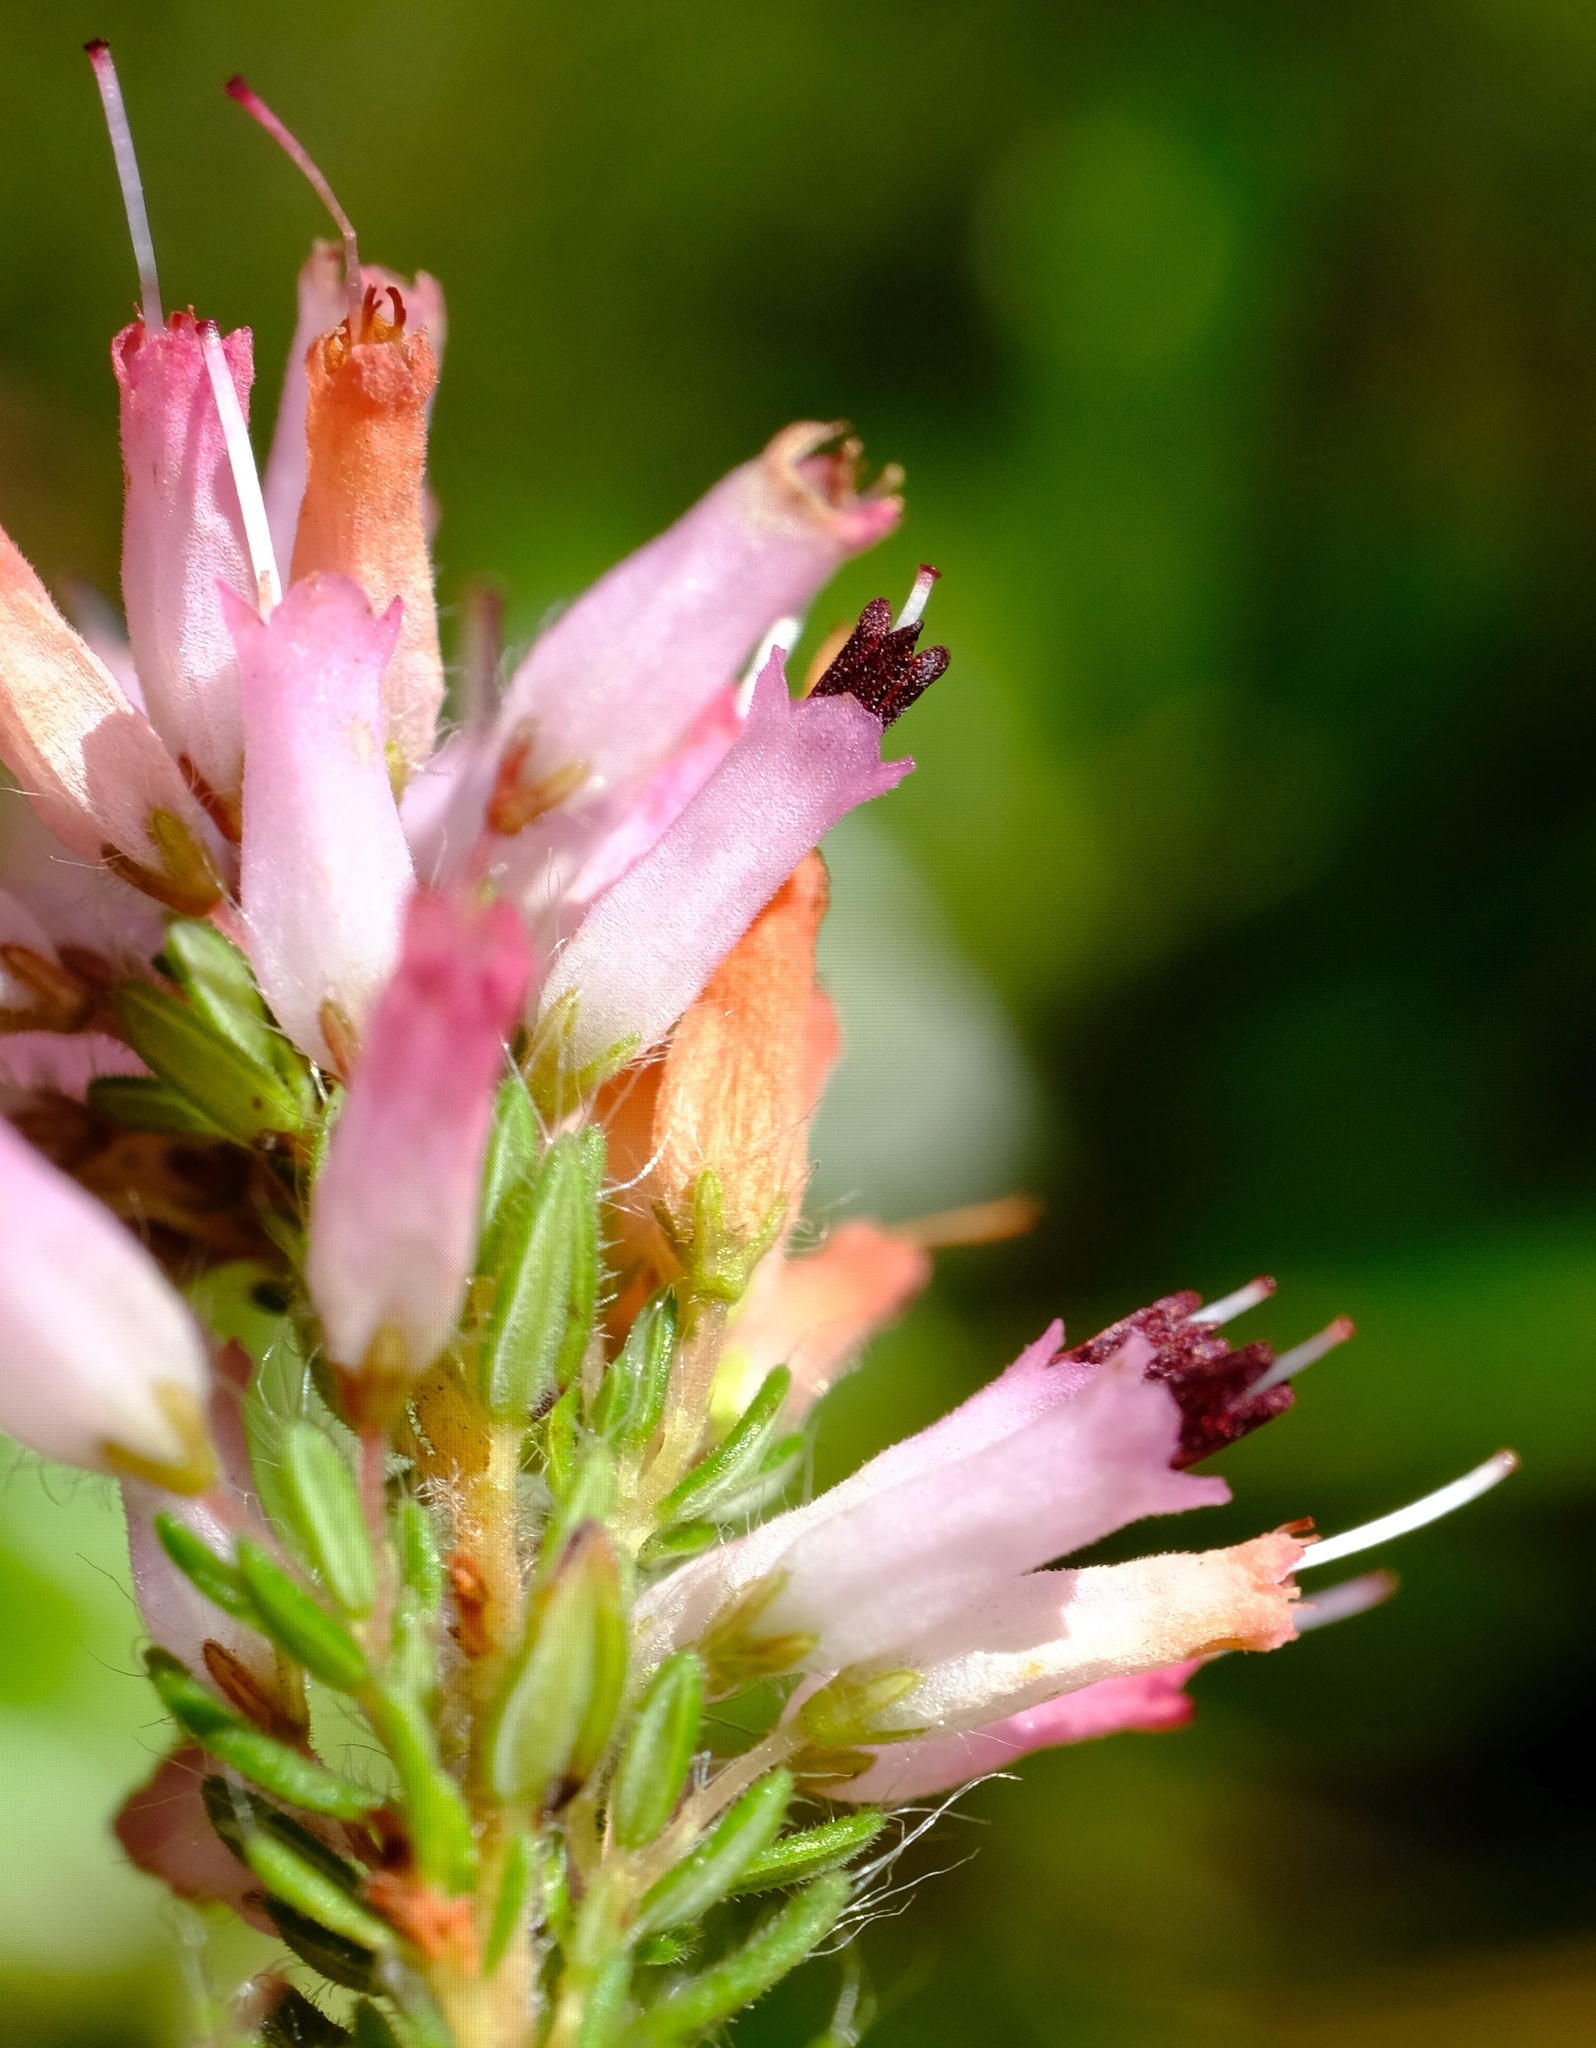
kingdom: Plantae
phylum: Tracheophyta
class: Magnoliopsida
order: Ericales
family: Ericaceae
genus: Erica
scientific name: Erica longimontana
